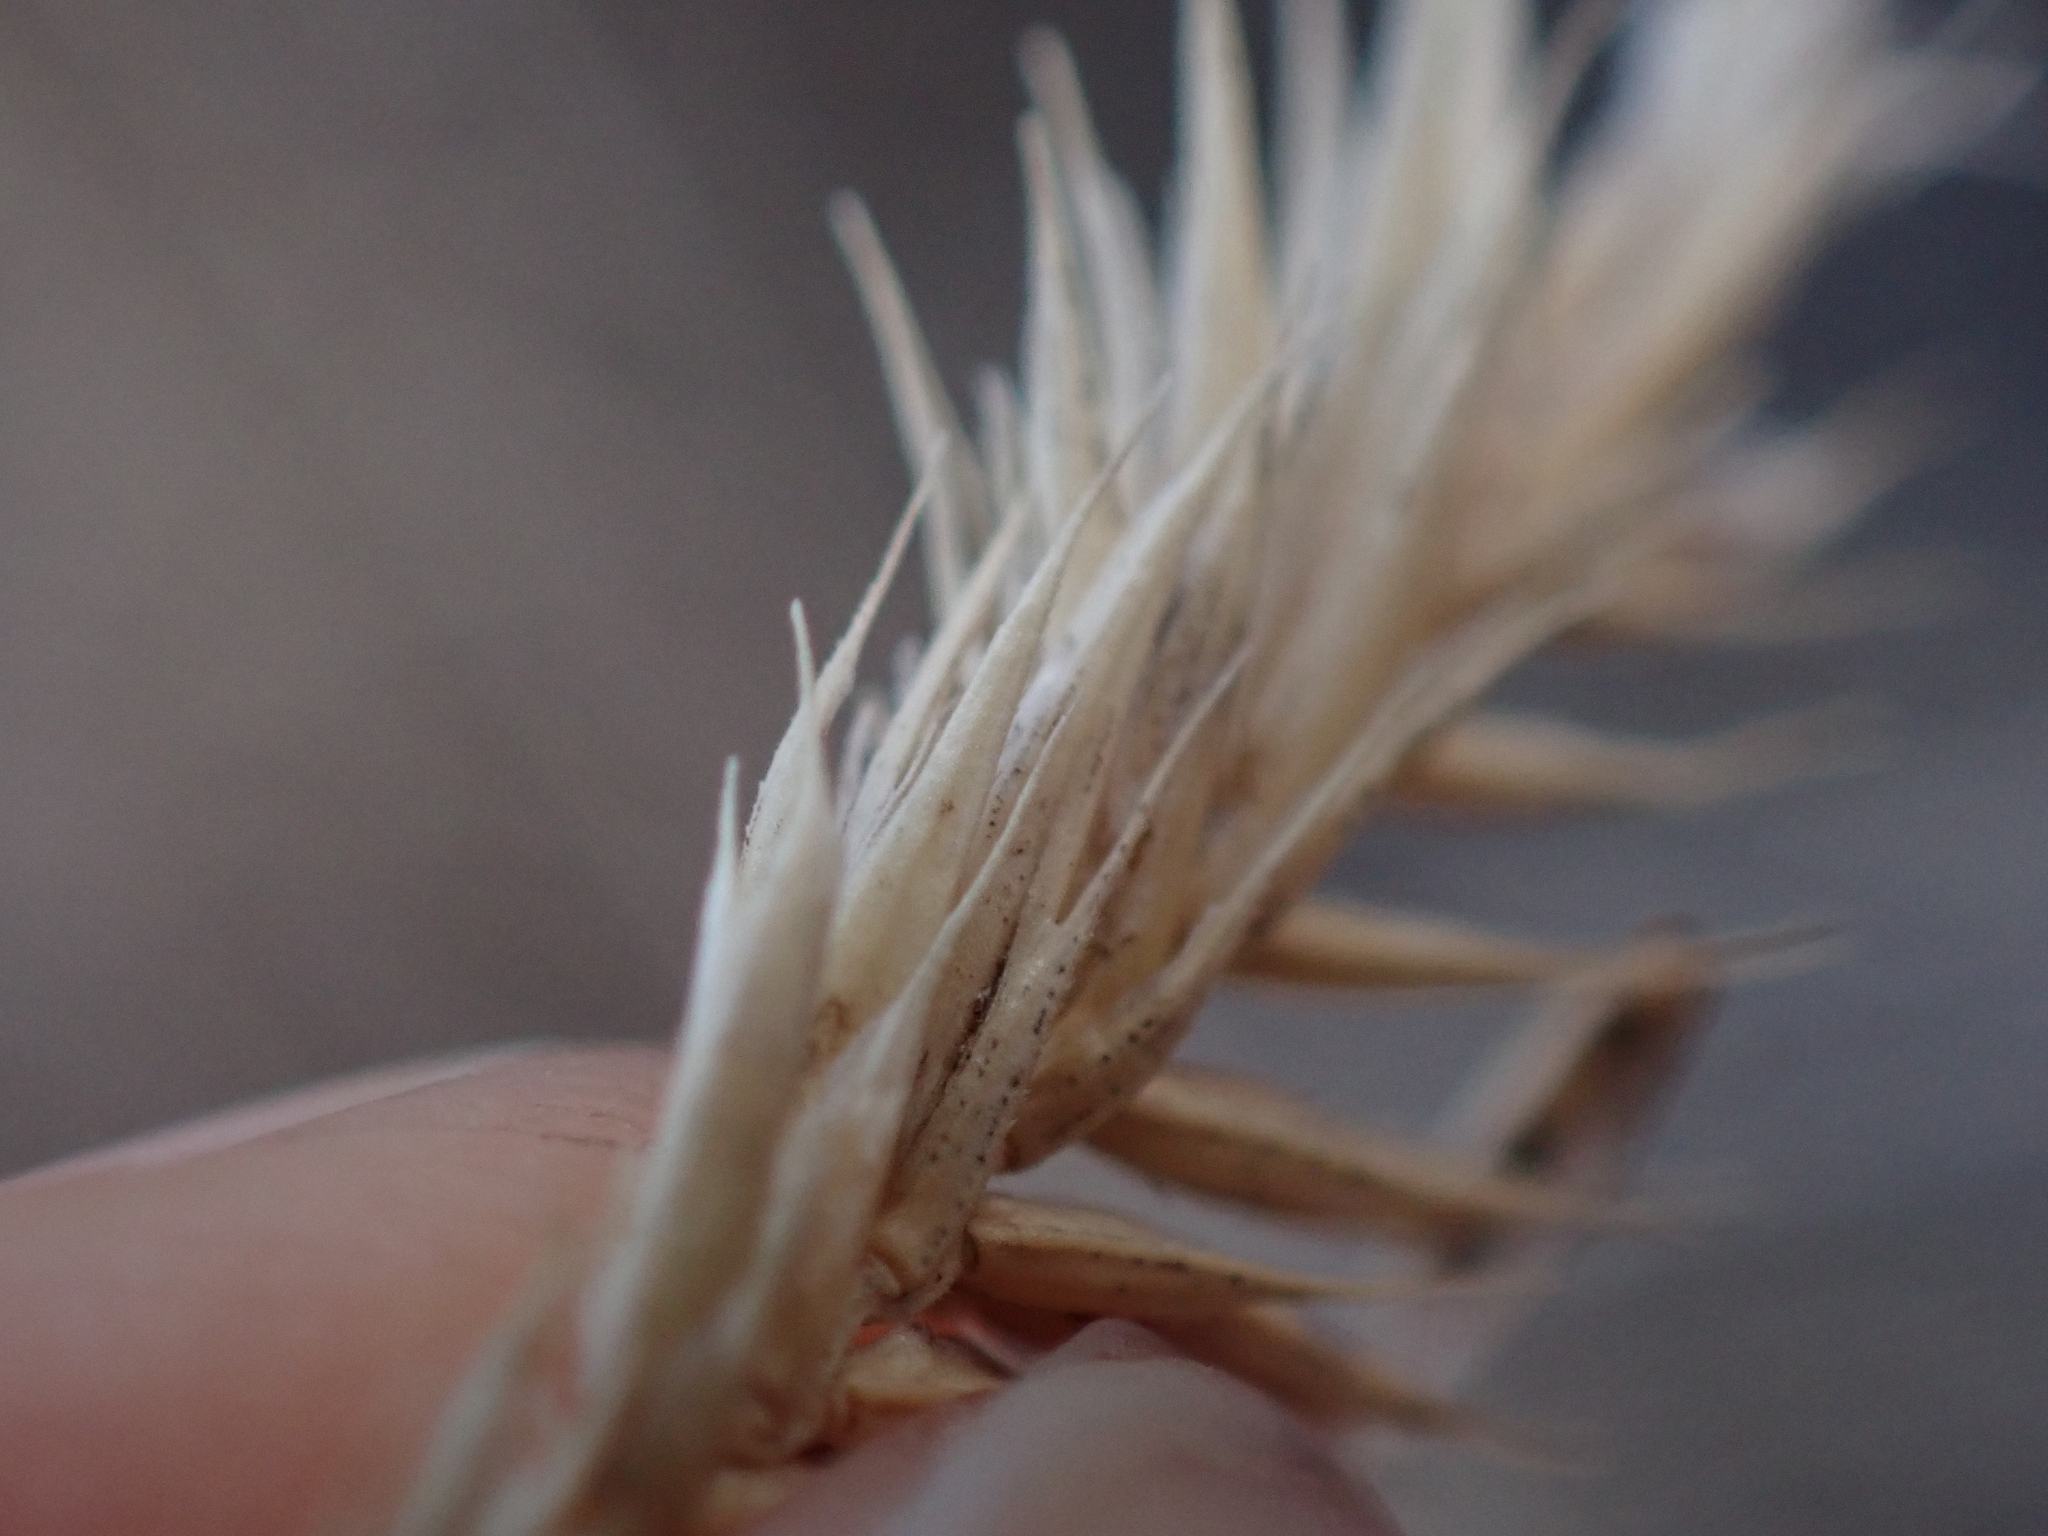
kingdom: Plantae
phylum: Tracheophyta
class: Liliopsida
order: Poales
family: Poaceae
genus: Agropyron
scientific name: Agropyron cristatum
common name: Crested wheatgrass
